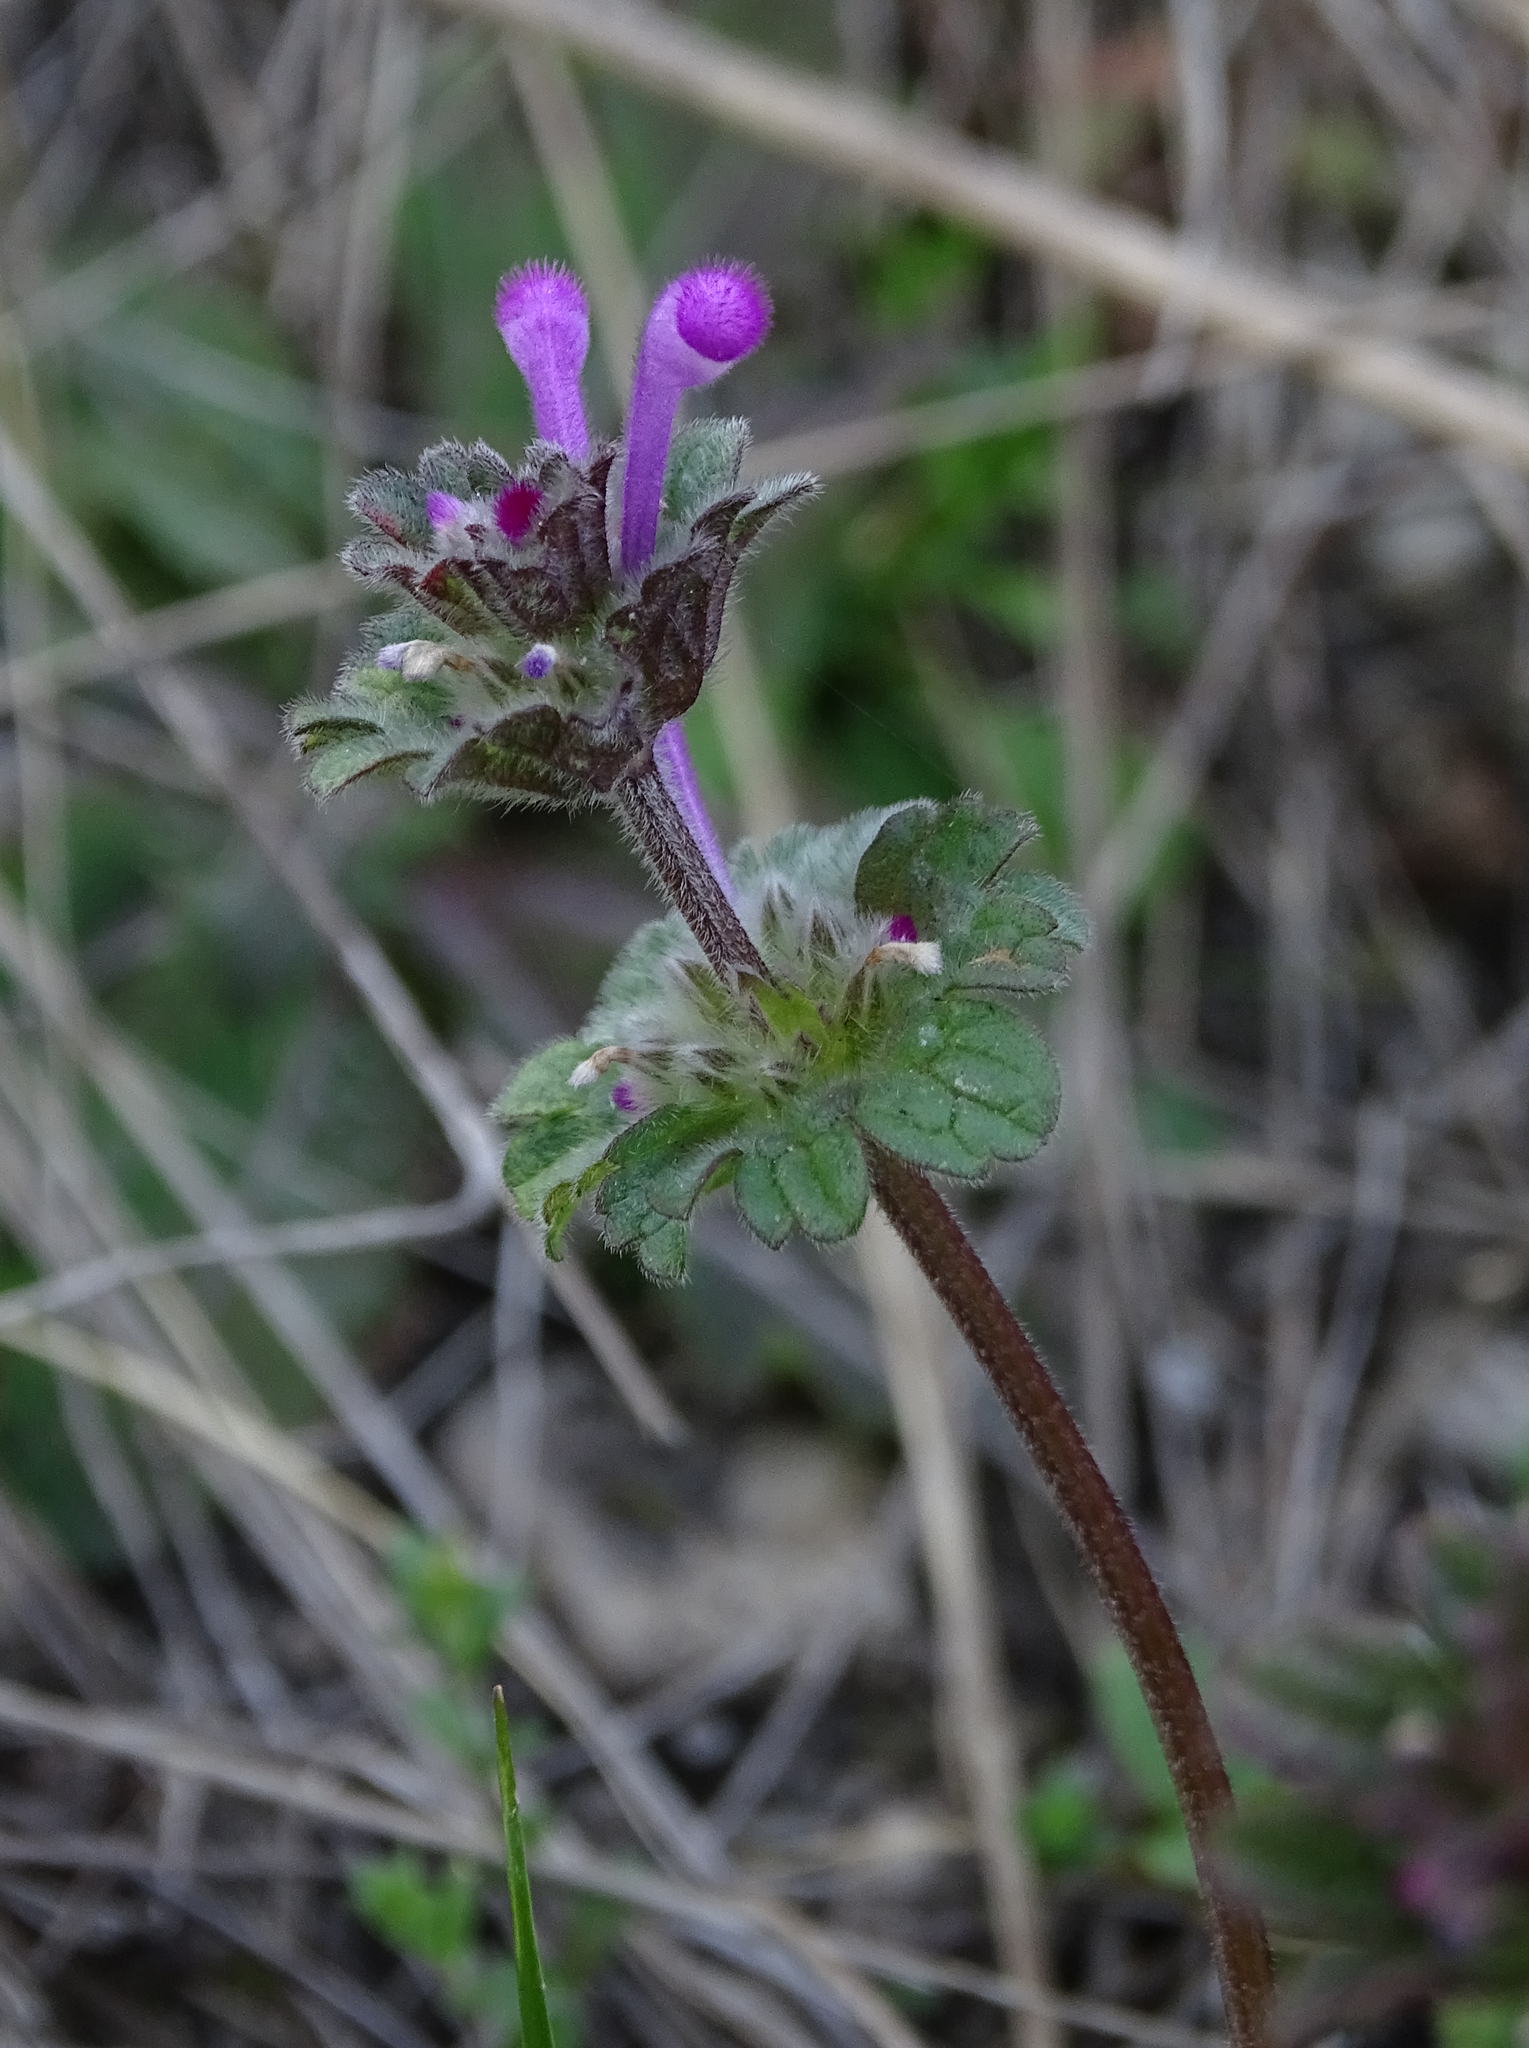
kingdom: Plantae
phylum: Tracheophyta
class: Magnoliopsida
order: Lamiales
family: Lamiaceae
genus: Lamium
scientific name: Lamium amplexicaule
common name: Henbit dead-nettle
